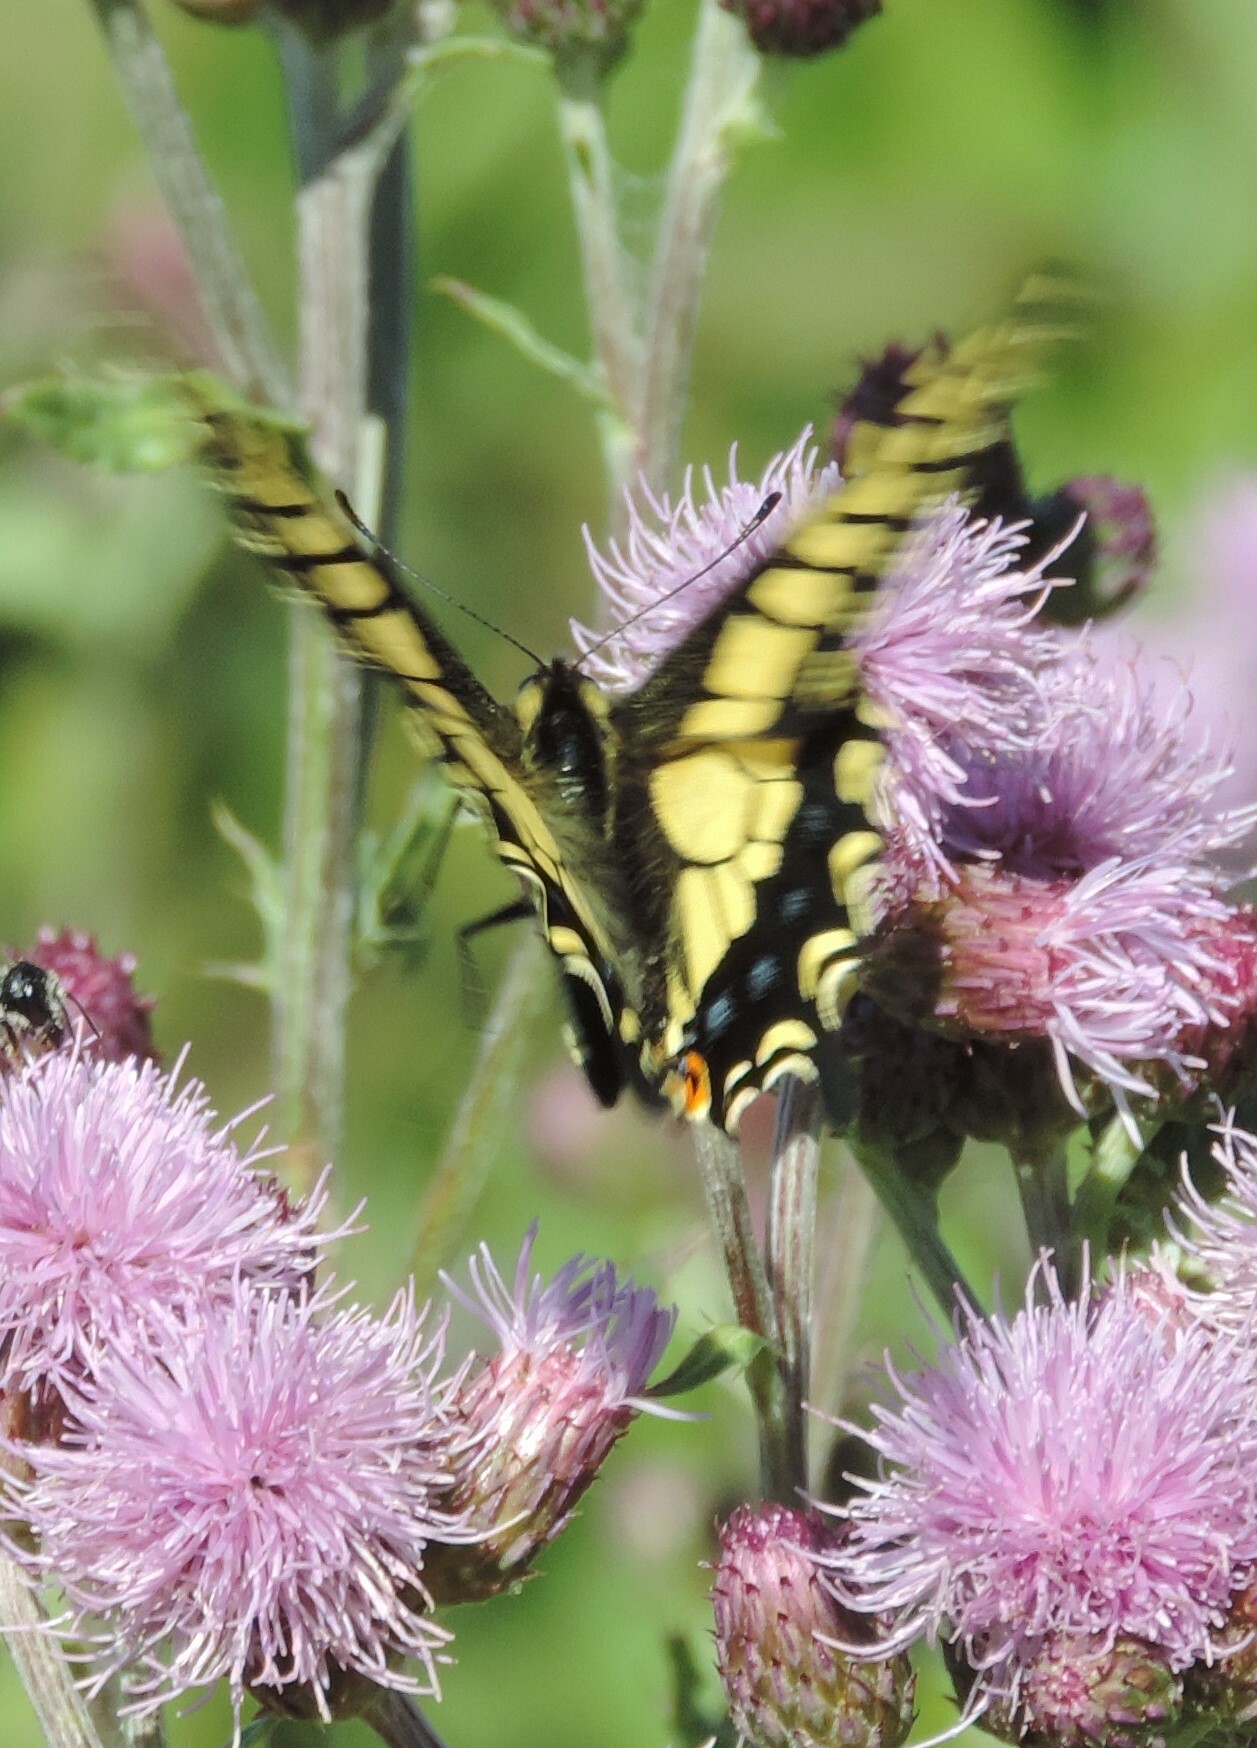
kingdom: Animalia
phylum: Arthropoda
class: Insecta
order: Lepidoptera
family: Papilionidae
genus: Papilio
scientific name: Papilio zelicaon
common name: Anise swallowtail
